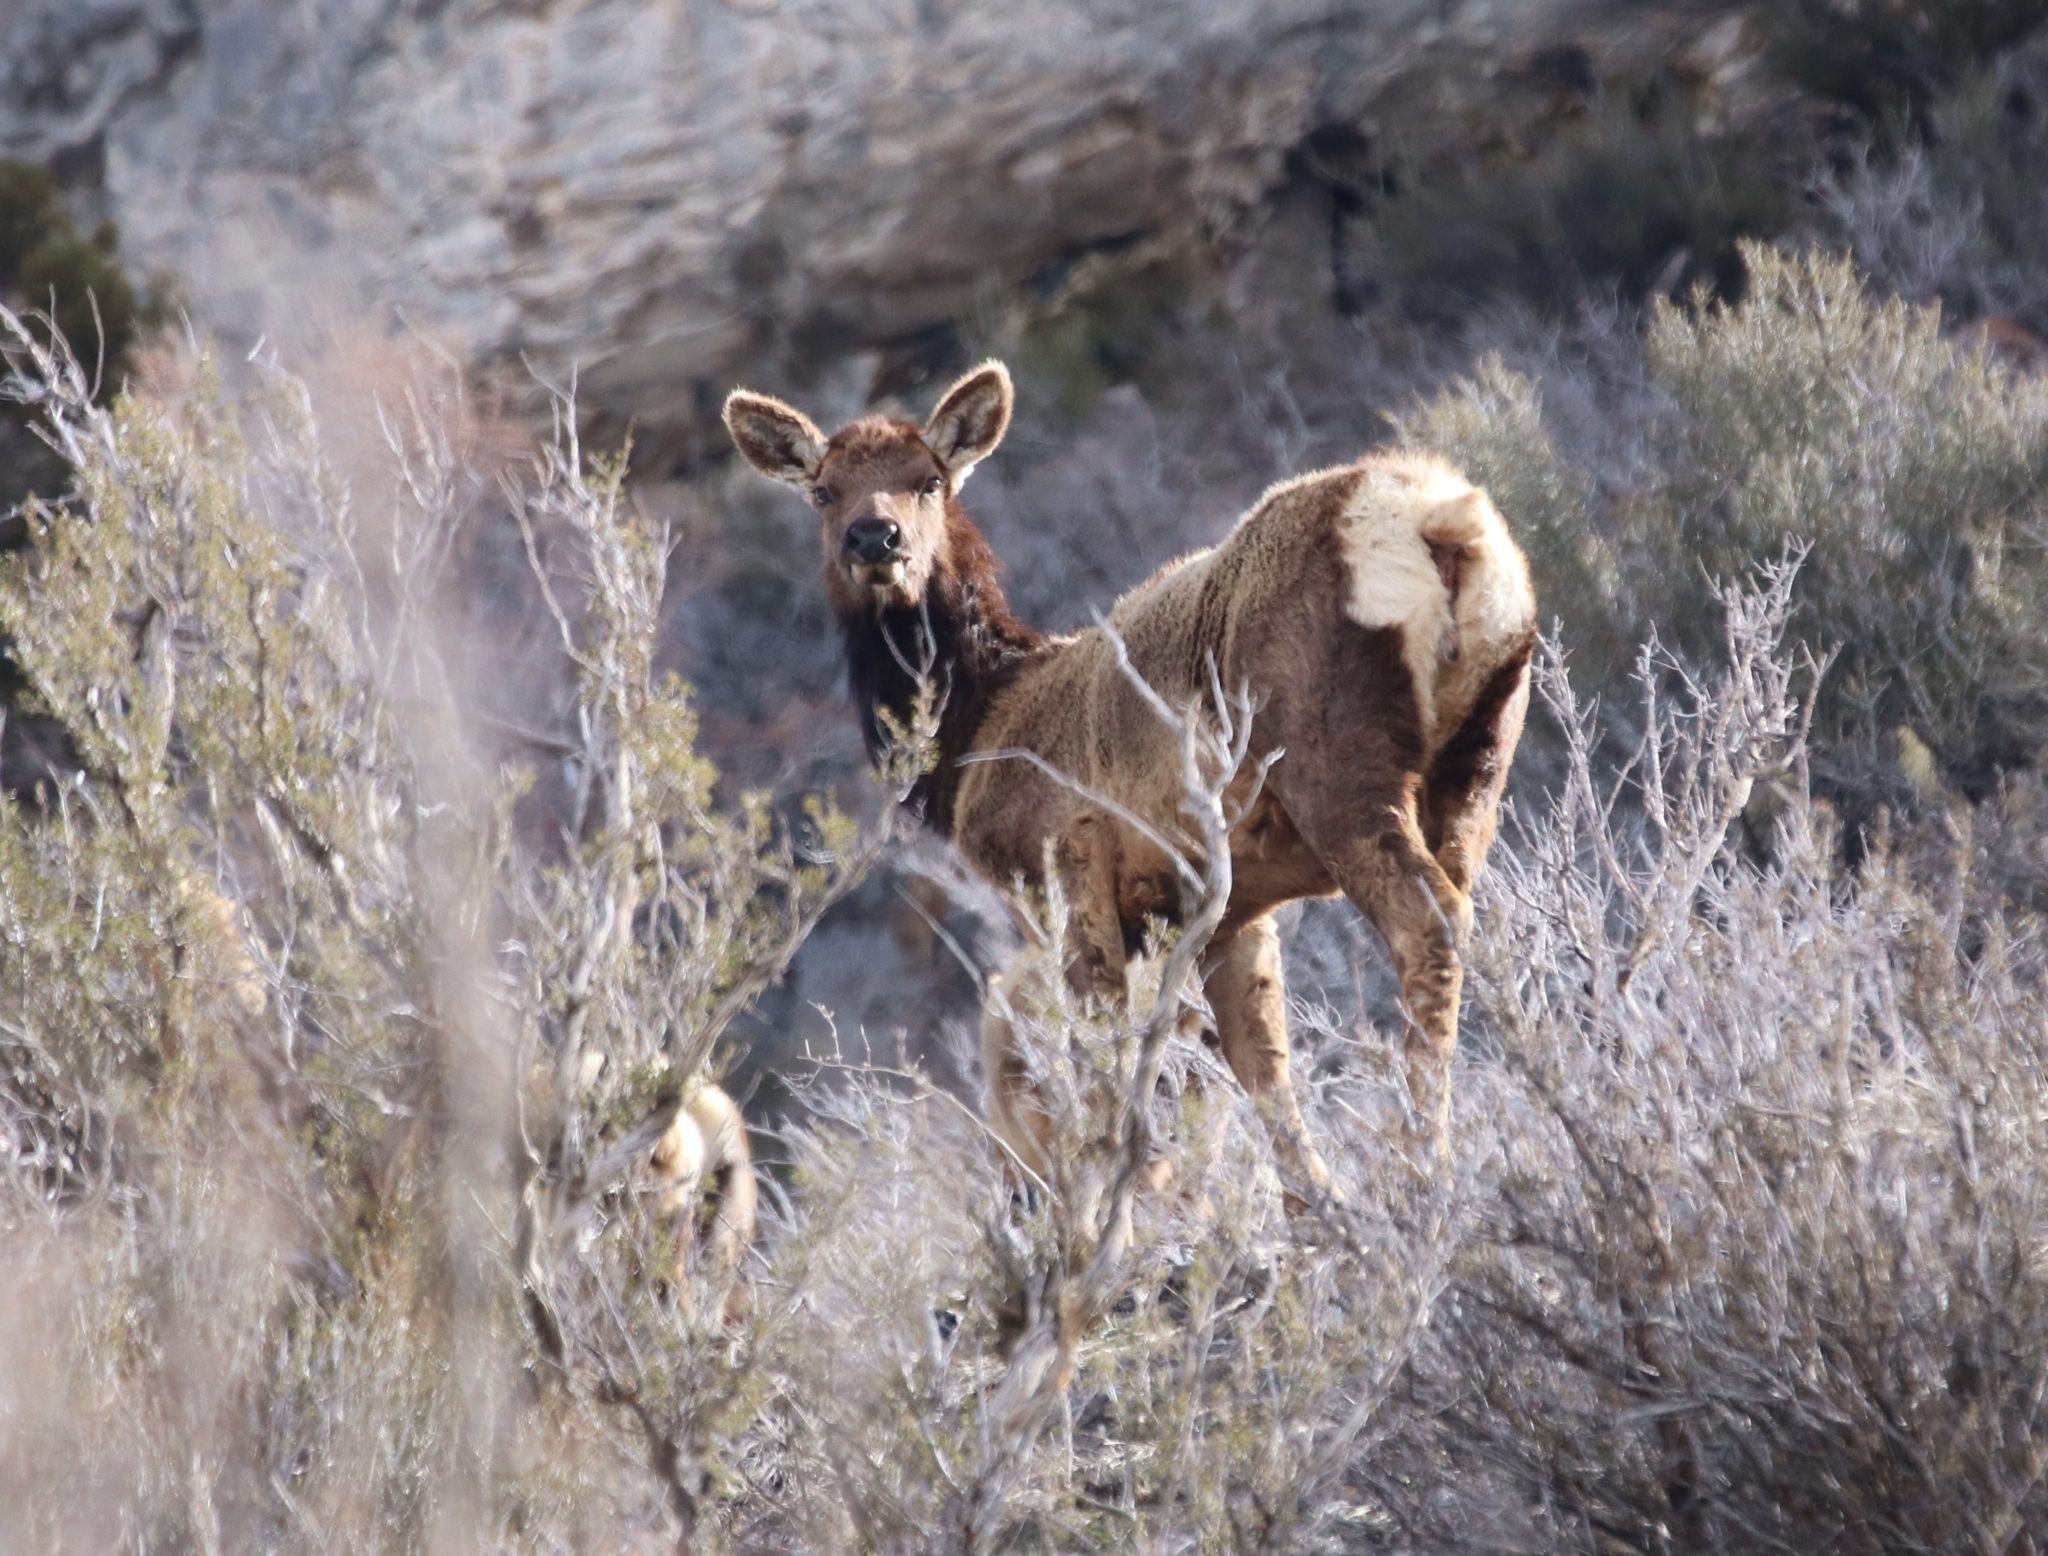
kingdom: Animalia
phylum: Chordata
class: Mammalia
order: Artiodactyla
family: Cervidae
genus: Cervus
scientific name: Cervus elaphus
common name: Red deer
